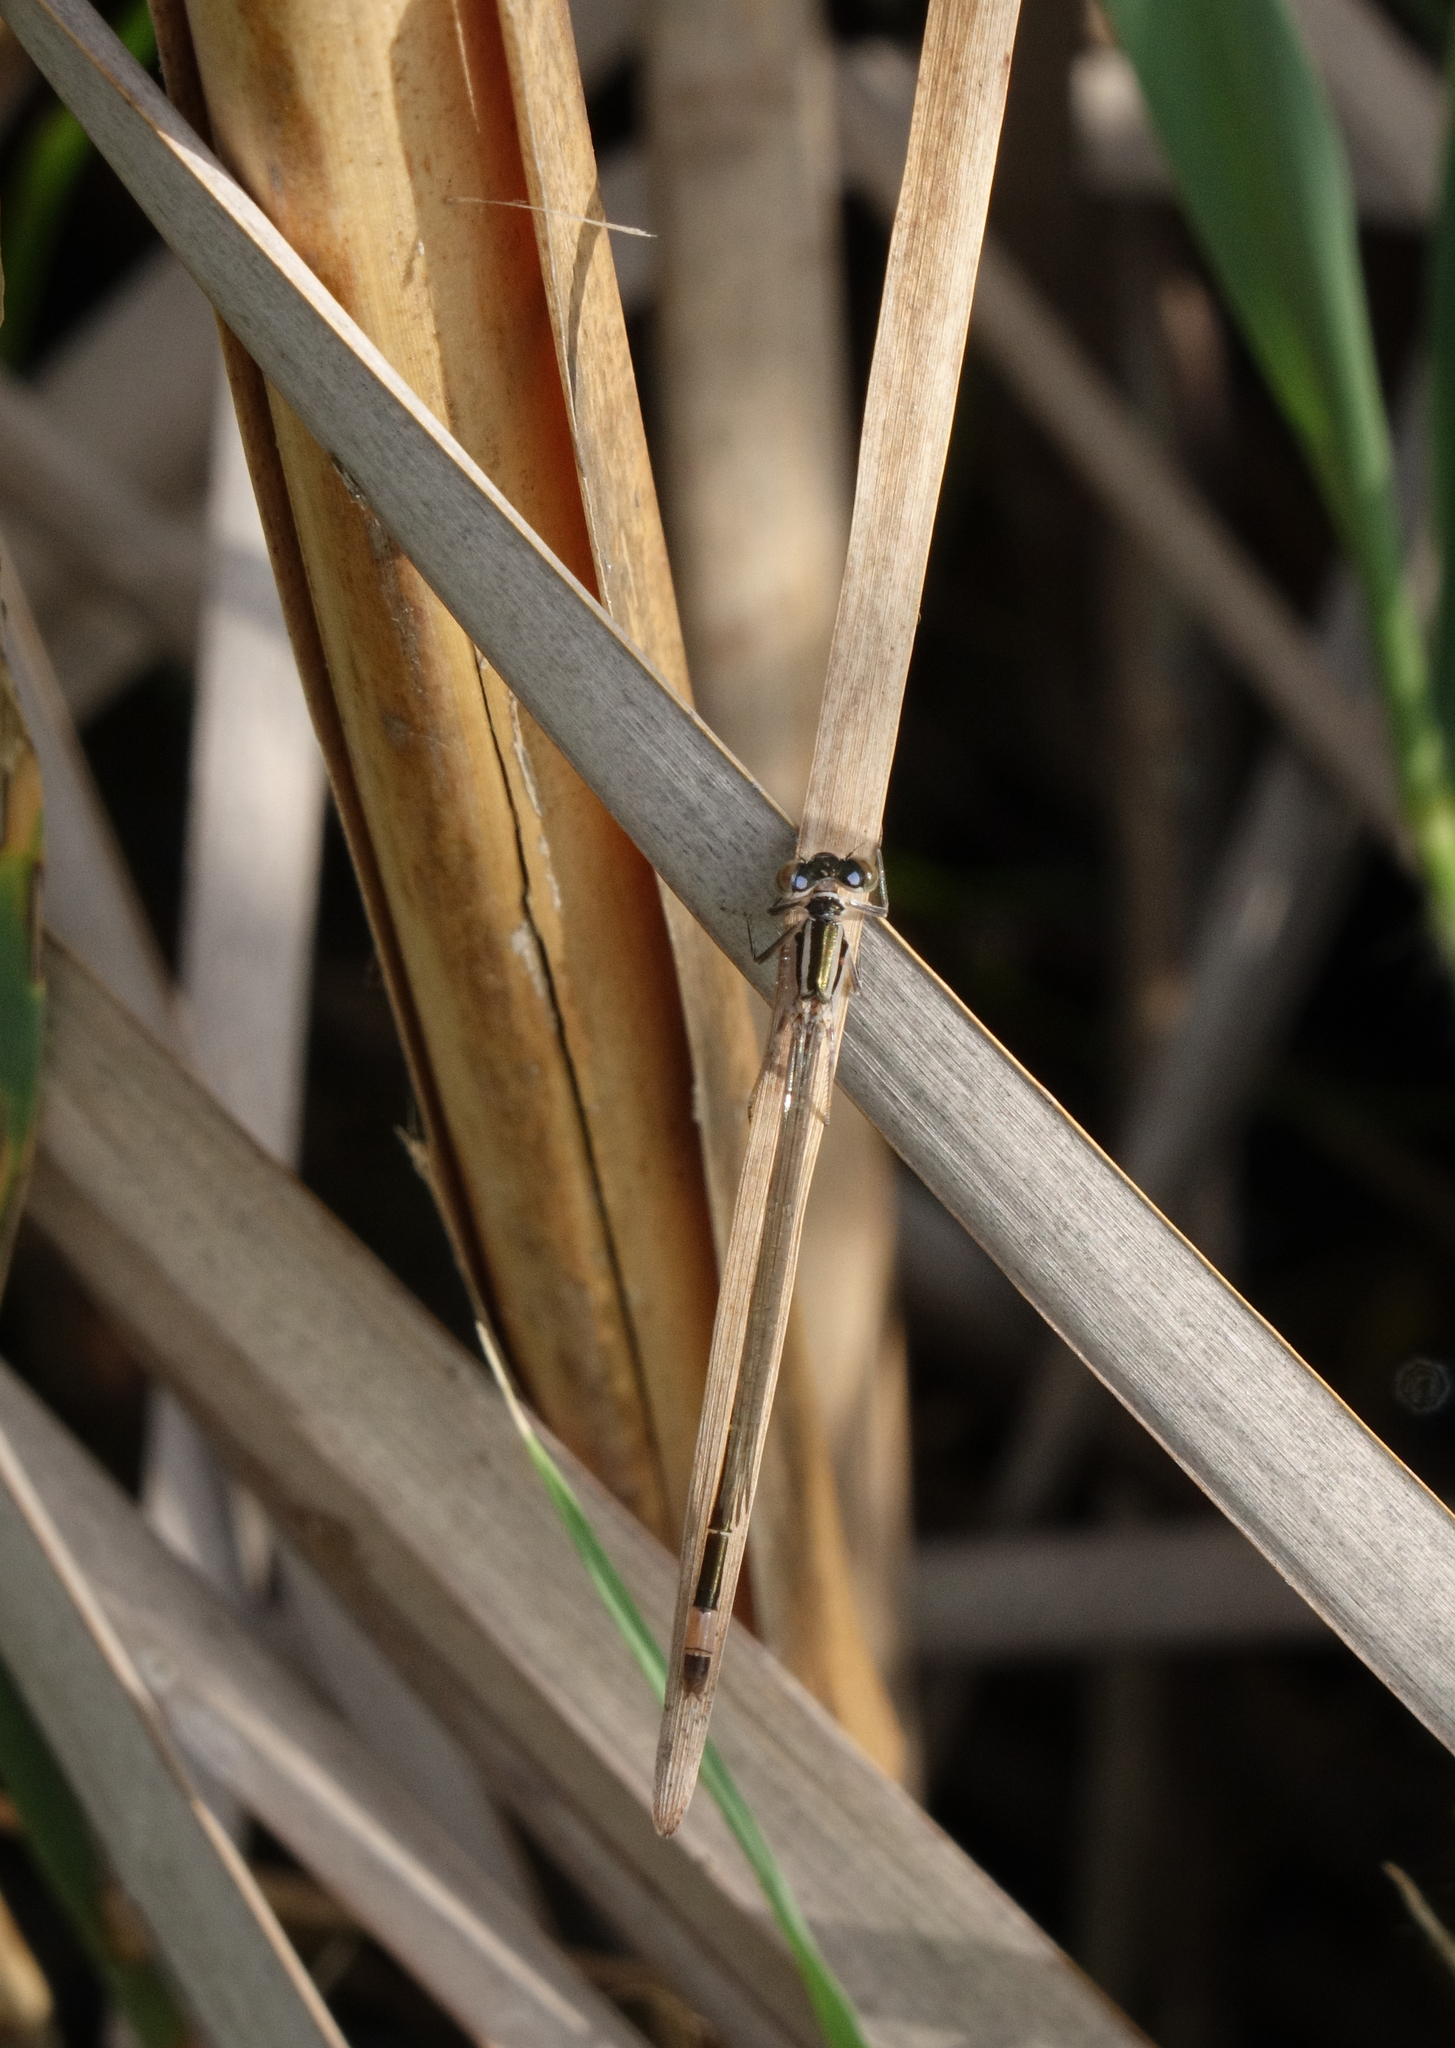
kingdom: Animalia
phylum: Arthropoda
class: Insecta
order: Odonata
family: Coenagrionidae
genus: Ischnura
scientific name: Ischnura elegans
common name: Blue-tailed damselfly
